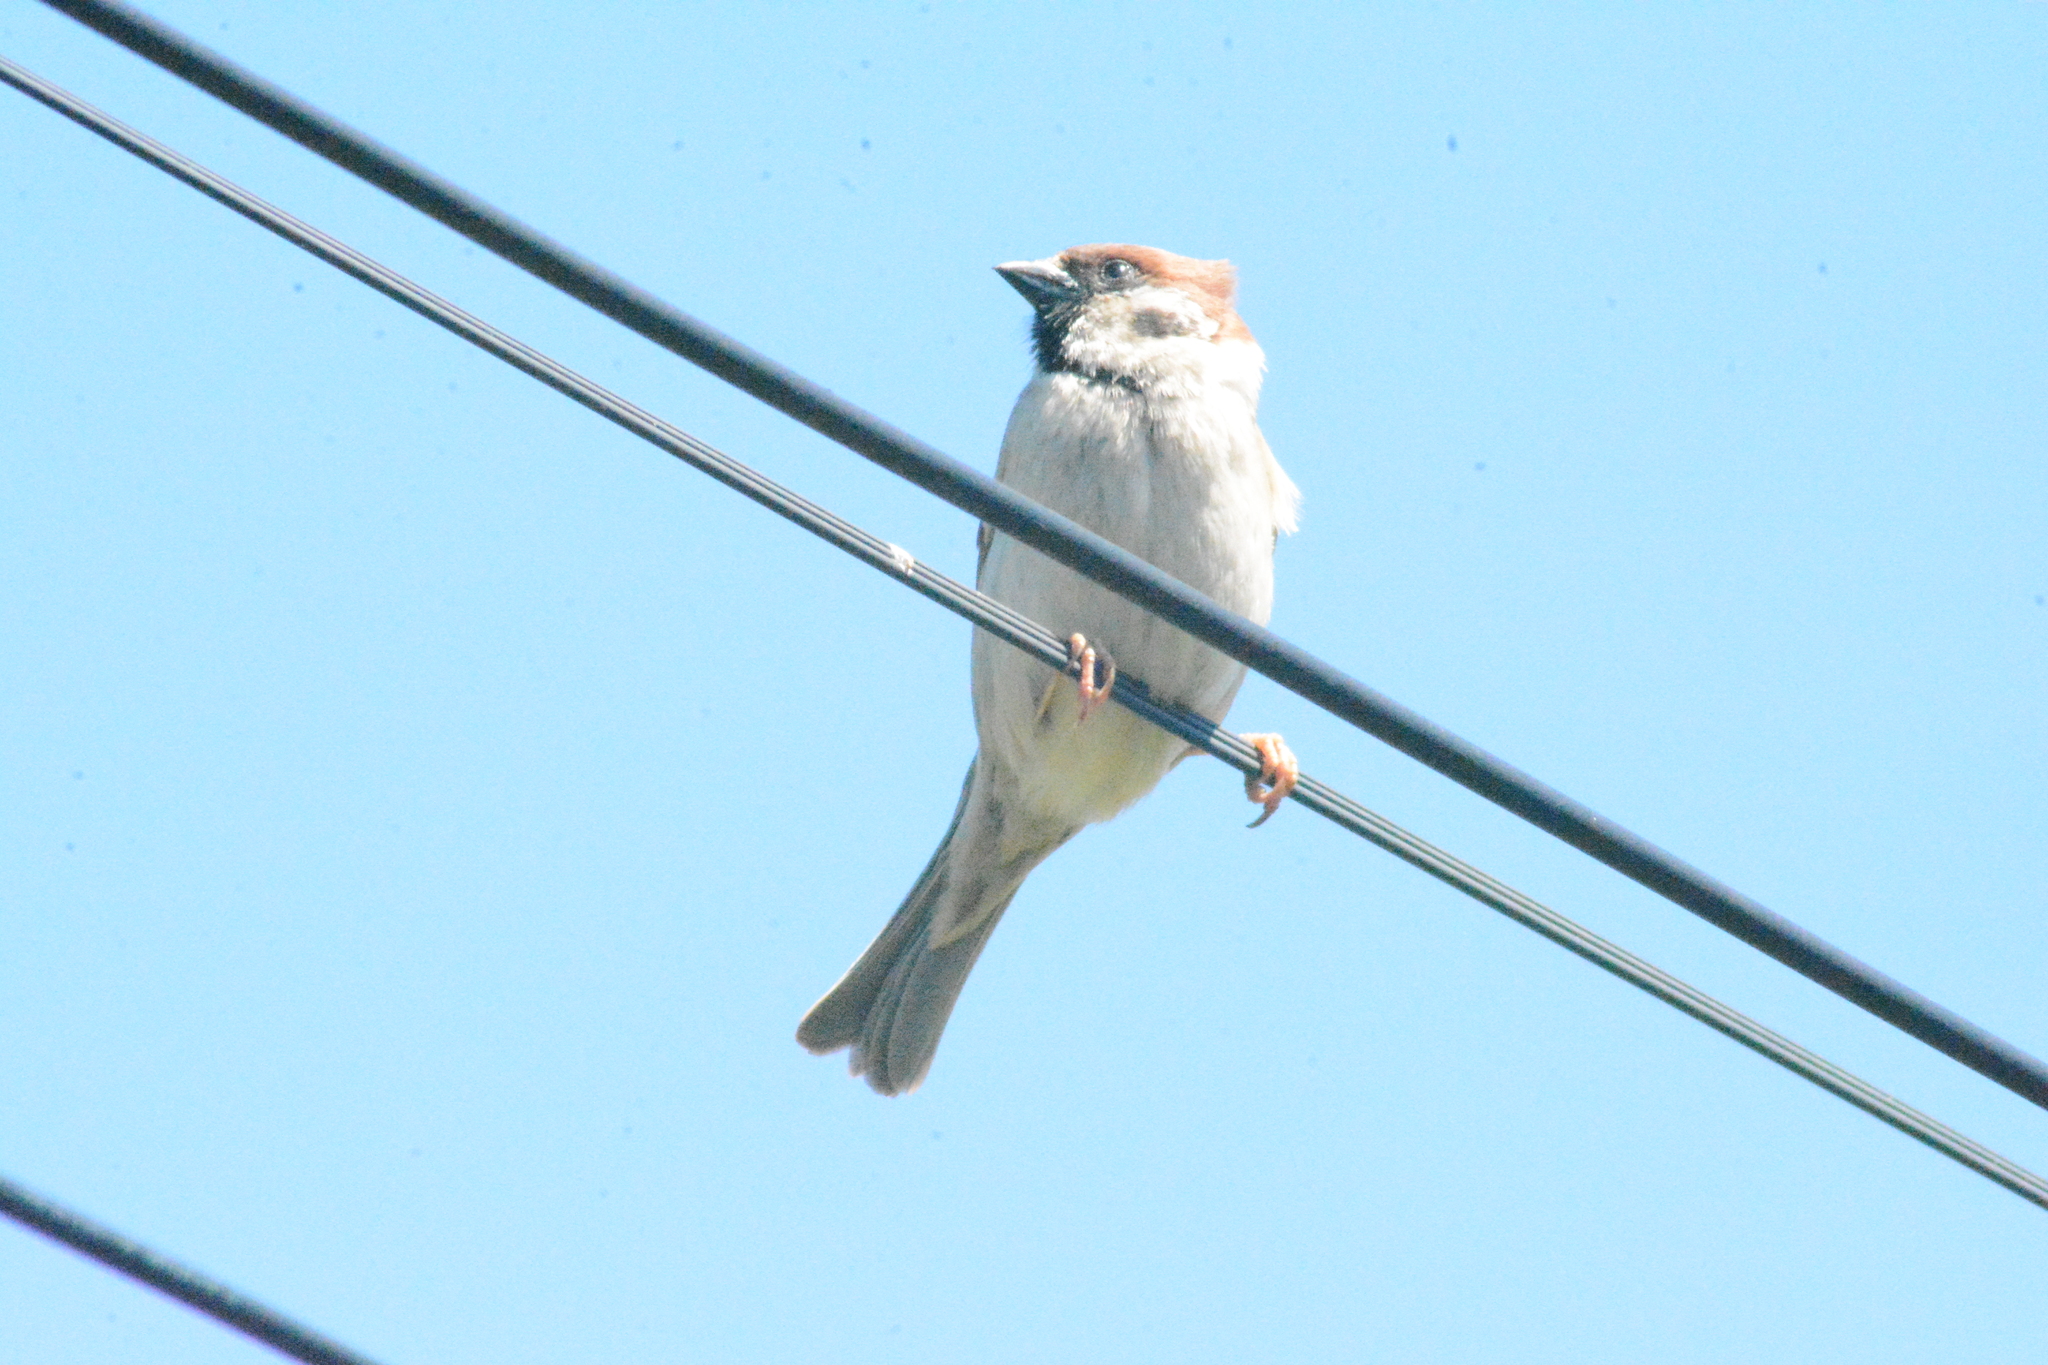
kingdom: Animalia
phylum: Chordata
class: Aves
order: Passeriformes
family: Passeridae
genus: Passer
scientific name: Passer montanus
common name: Eurasian tree sparrow
